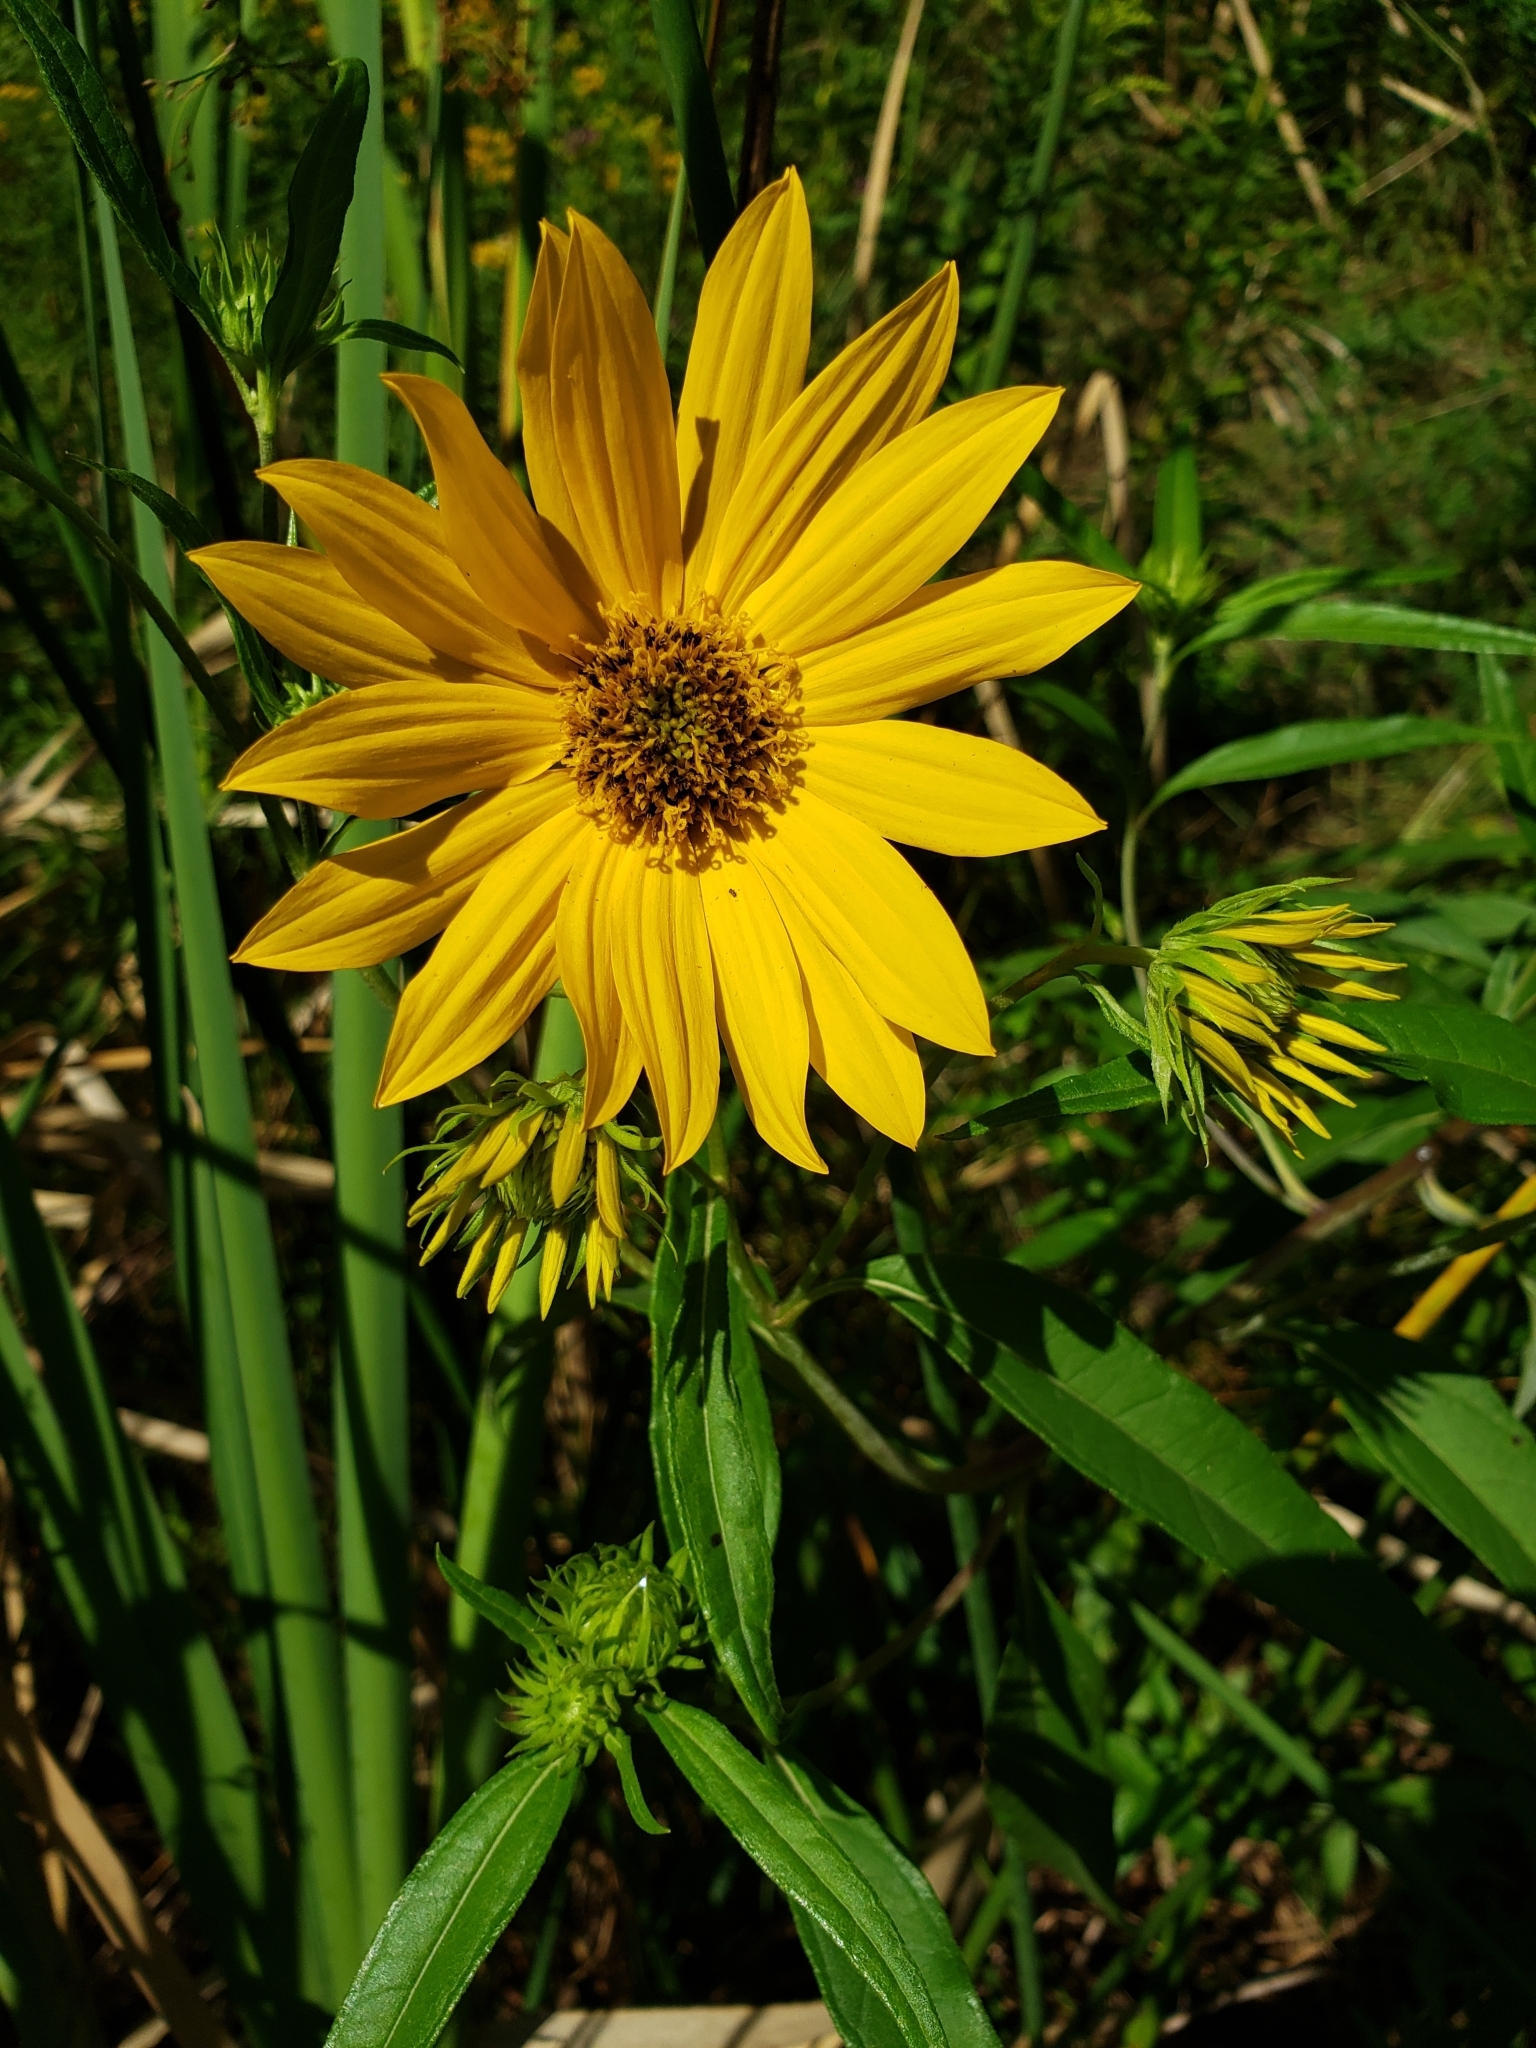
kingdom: Plantae
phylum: Tracheophyta
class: Magnoliopsida
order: Asterales
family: Asteraceae
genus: Helianthus
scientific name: Helianthus giganteus
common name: Giant sunflower
